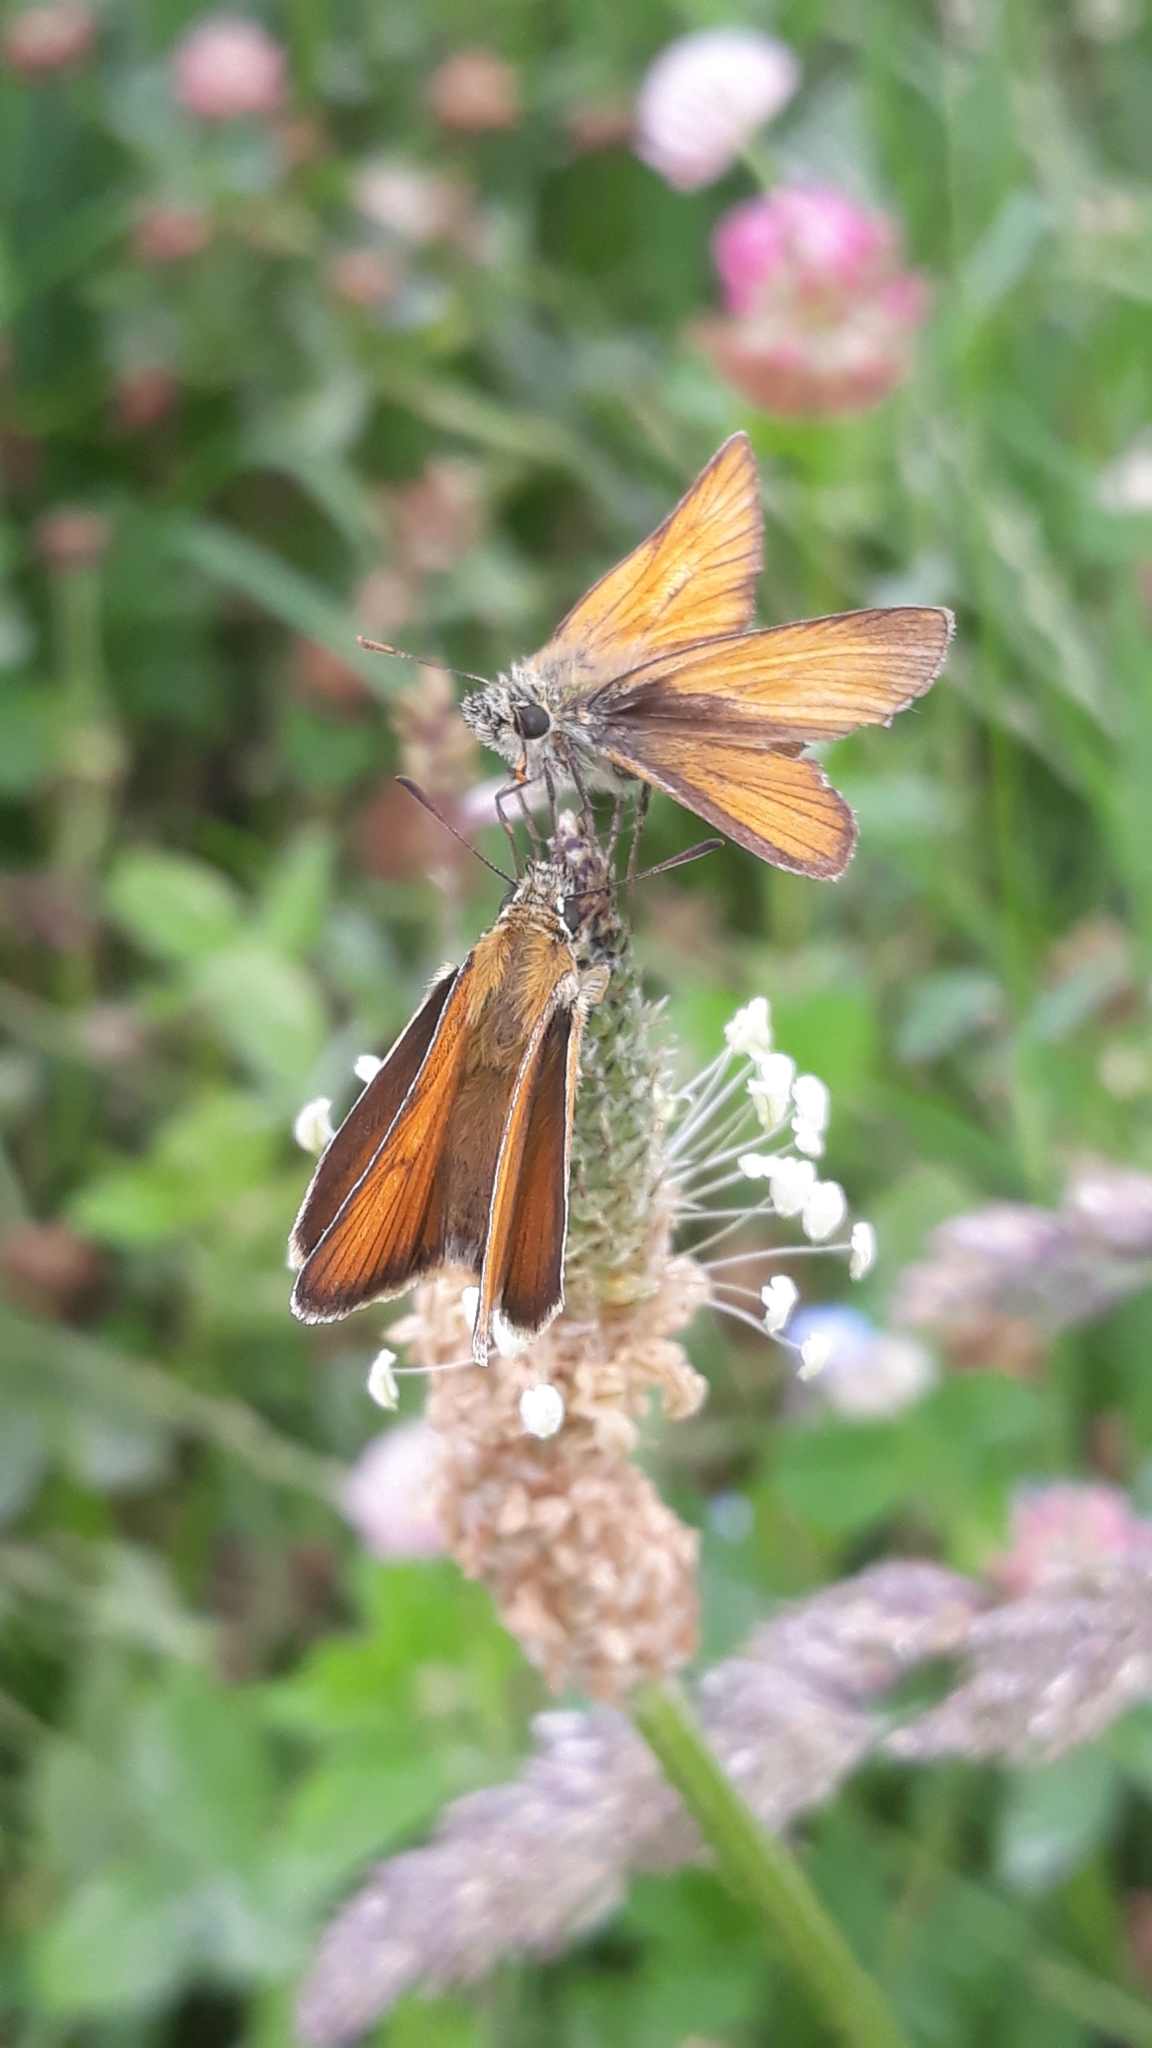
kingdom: Animalia
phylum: Arthropoda
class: Insecta
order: Lepidoptera
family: Hesperiidae
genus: Thymelicus
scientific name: Thymelicus sylvestris
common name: Small skipper
